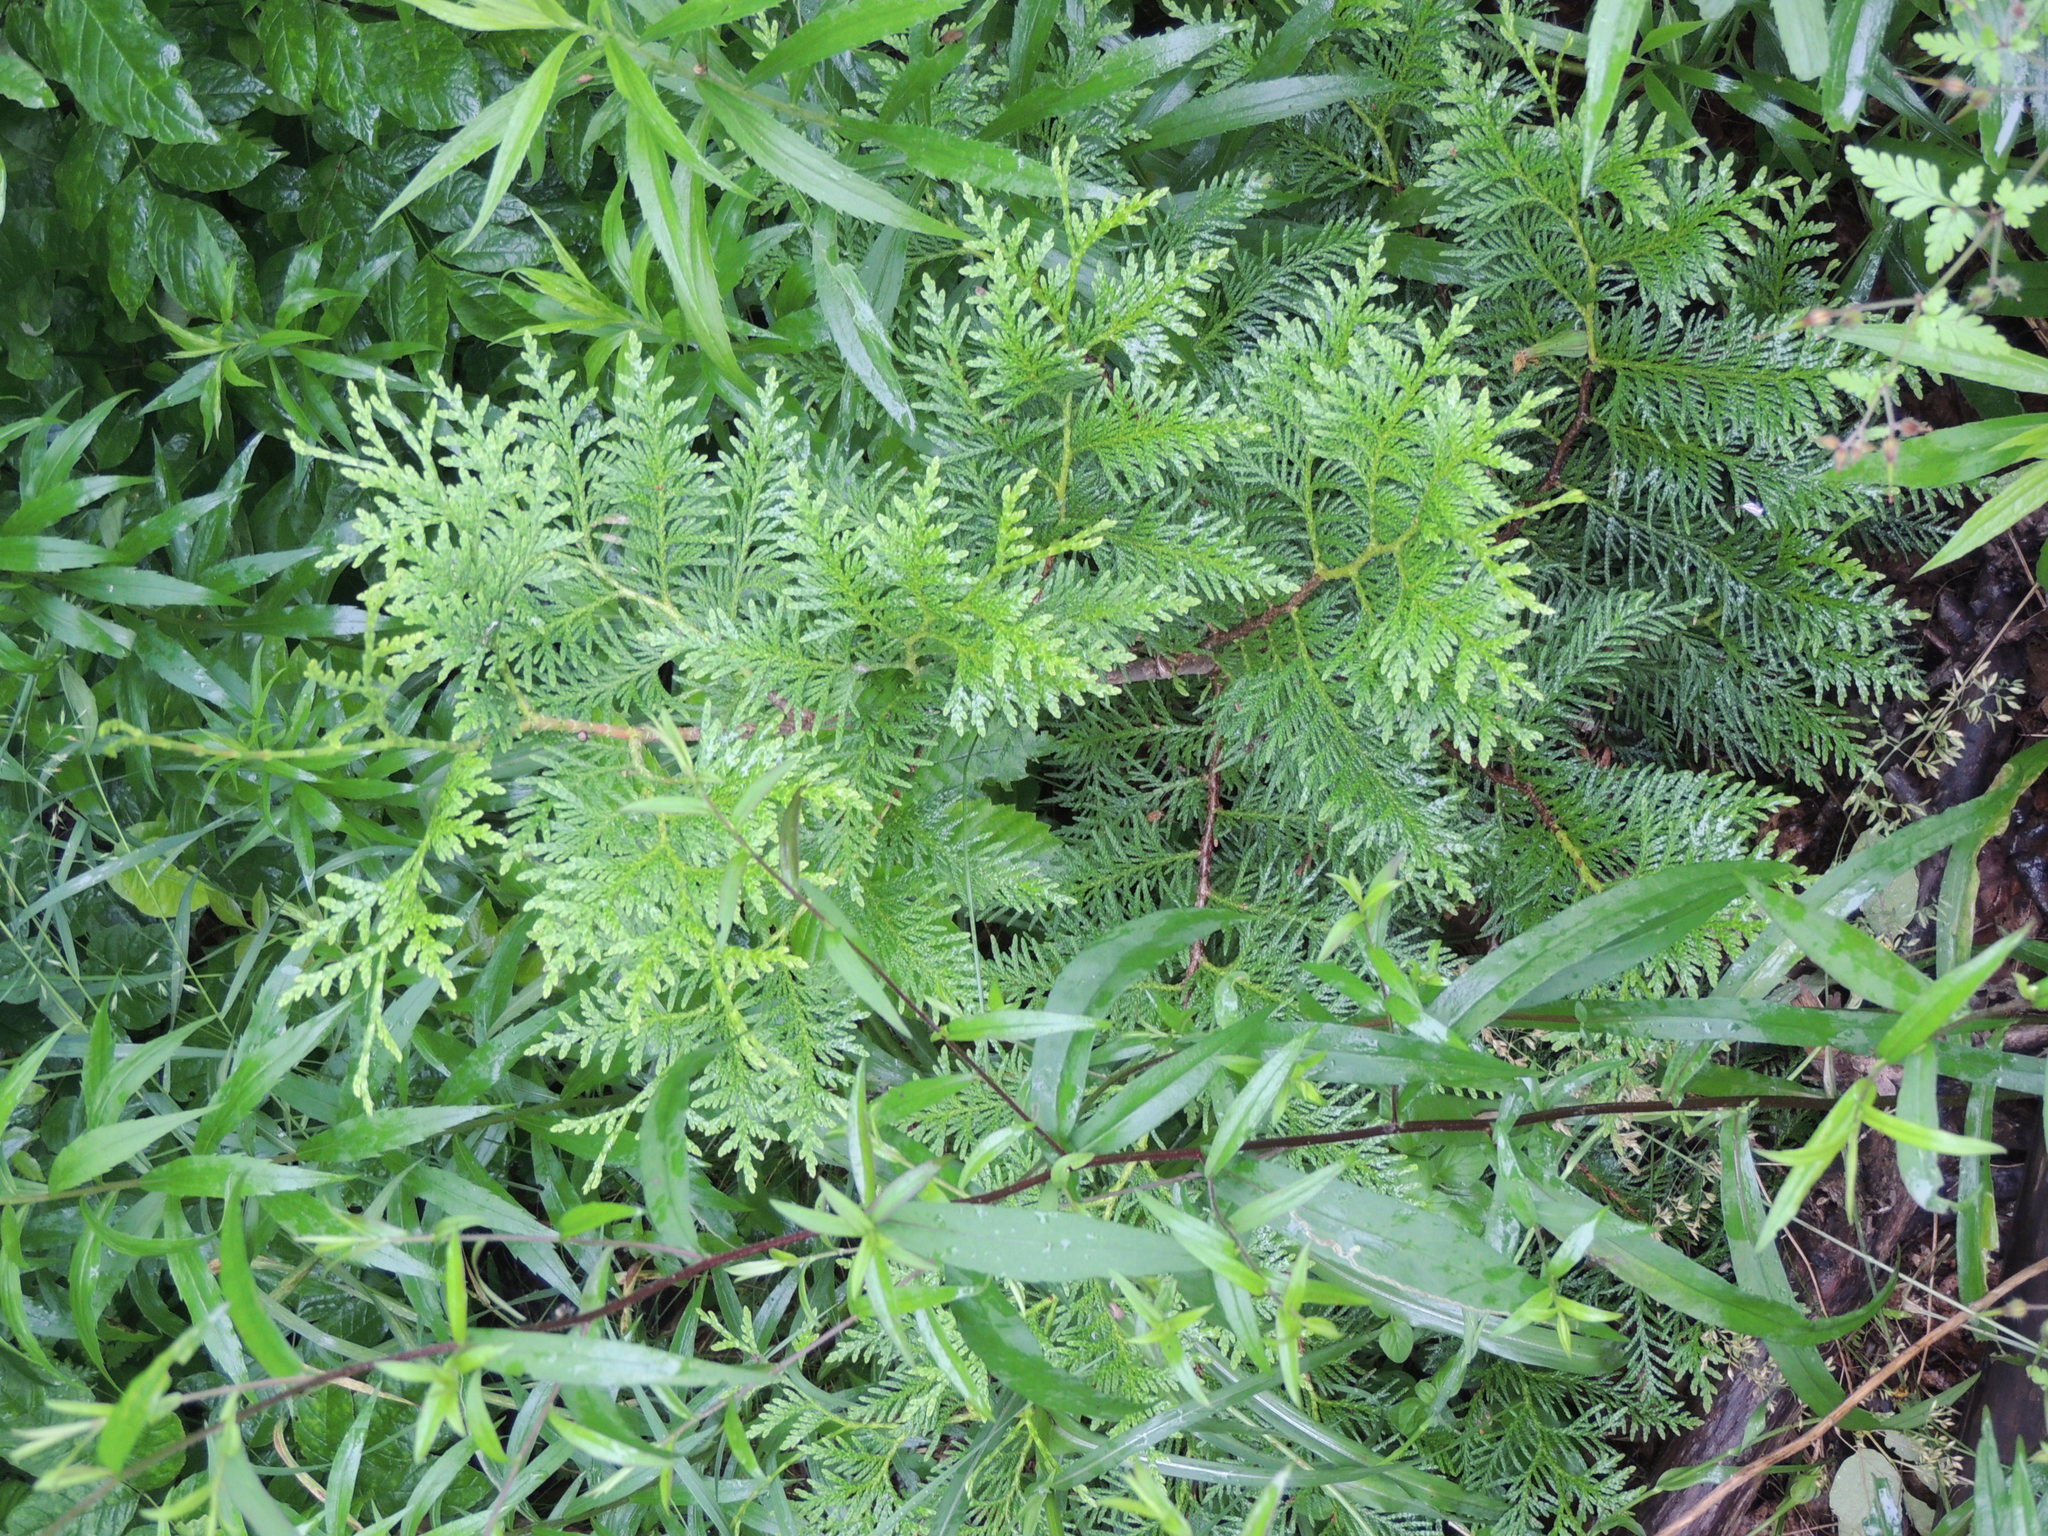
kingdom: Plantae
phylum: Tracheophyta
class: Pinopsida
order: Pinales
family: Cupressaceae
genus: Thuja
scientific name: Thuja occidentalis
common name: Northern white-cedar
